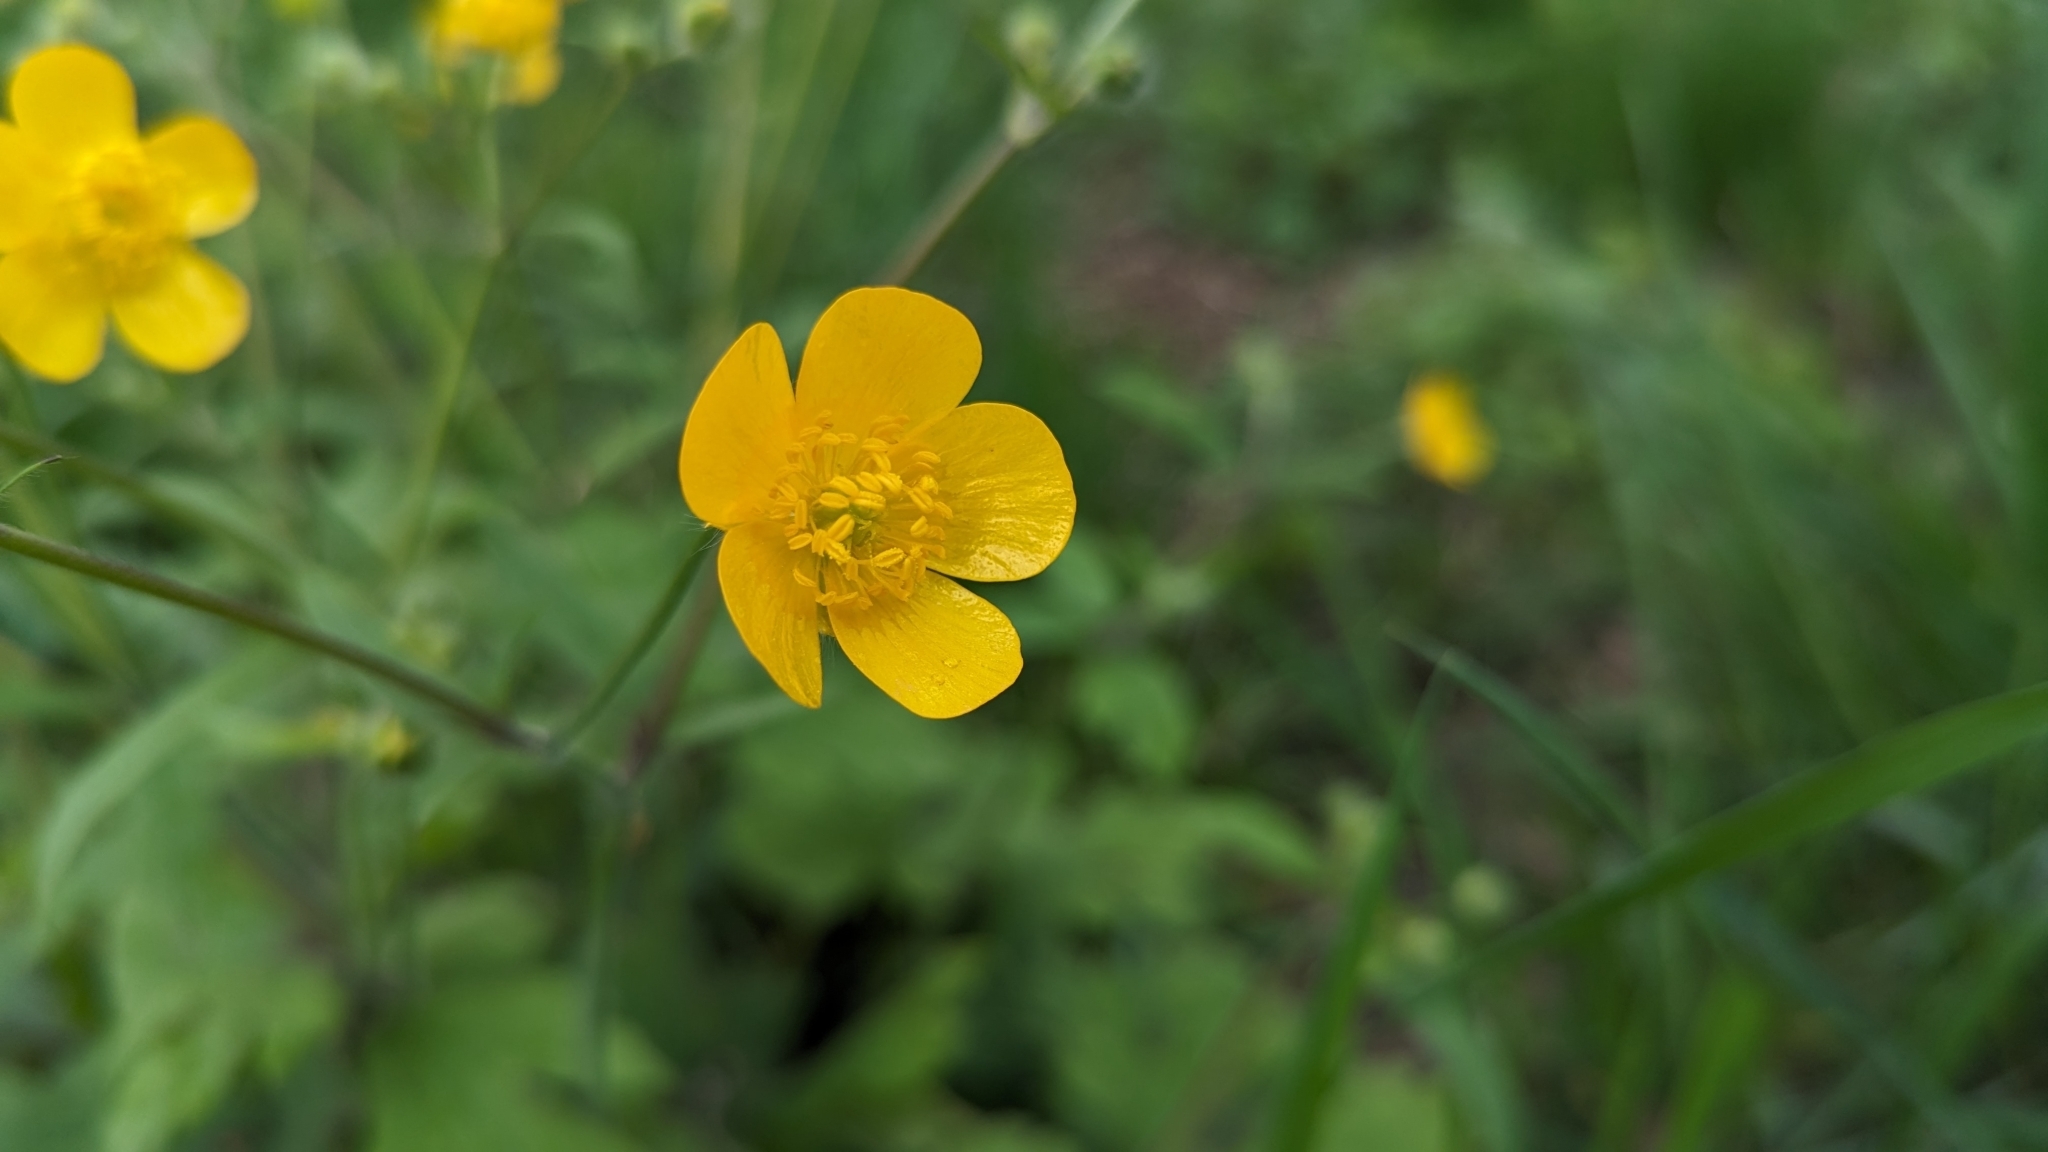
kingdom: Plantae
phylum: Tracheophyta
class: Magnoliopsida
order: Ranunculales
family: Ranunculaceae
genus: Ranunculus
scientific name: Ranunculus lanuginosus
